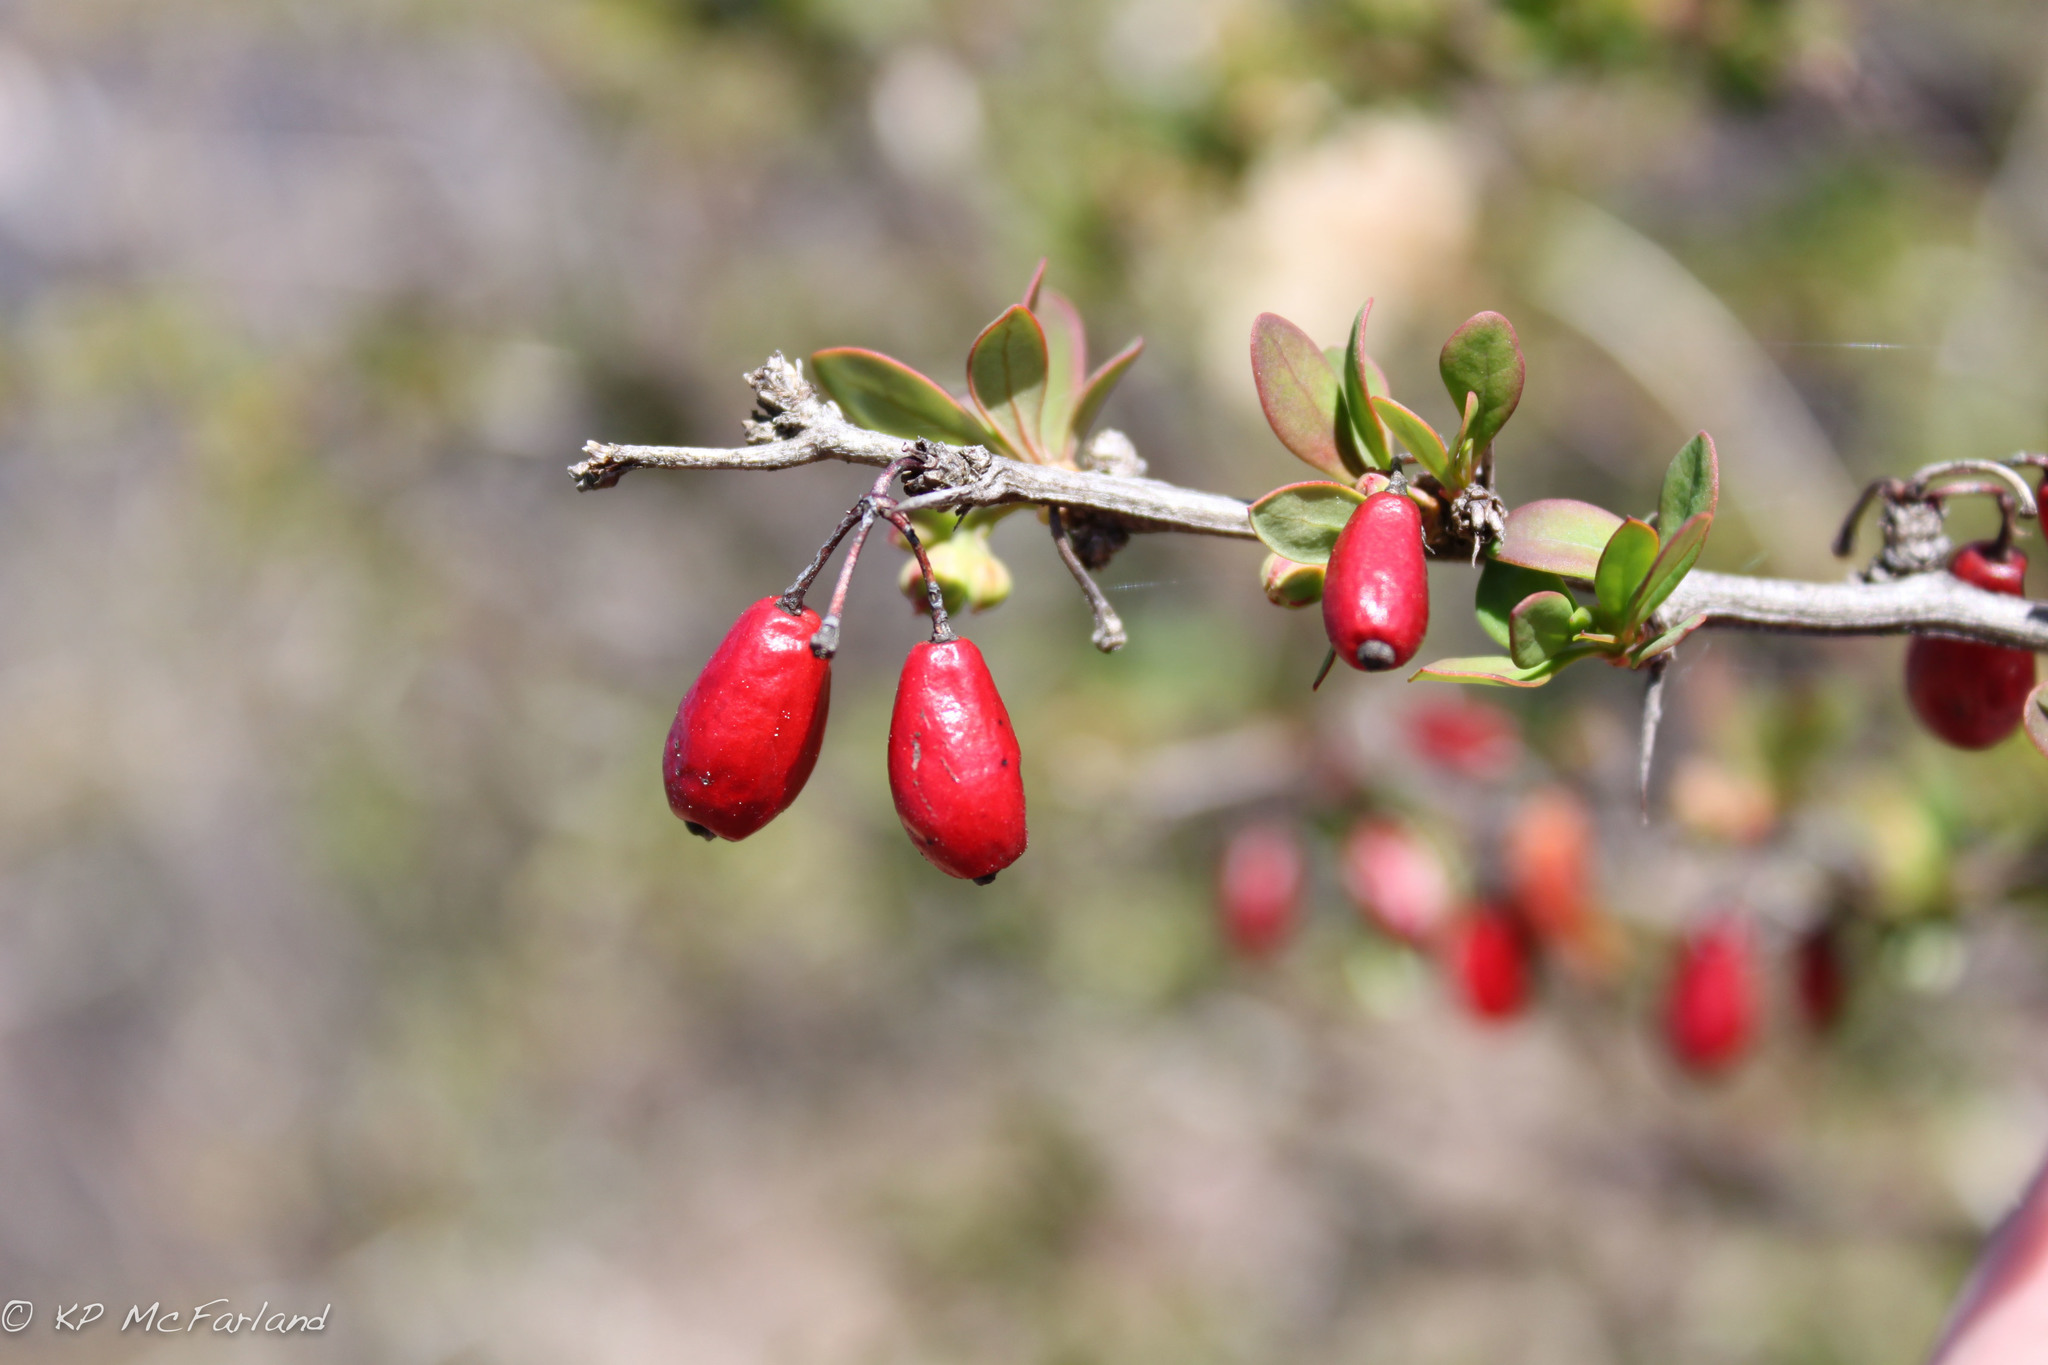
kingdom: Plantae
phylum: Tracheophyta
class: Magnoliopsida
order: Ranunculales
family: Berberidaceae
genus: Berberis
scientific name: Berberis thunbergii
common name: Japanese barberry
